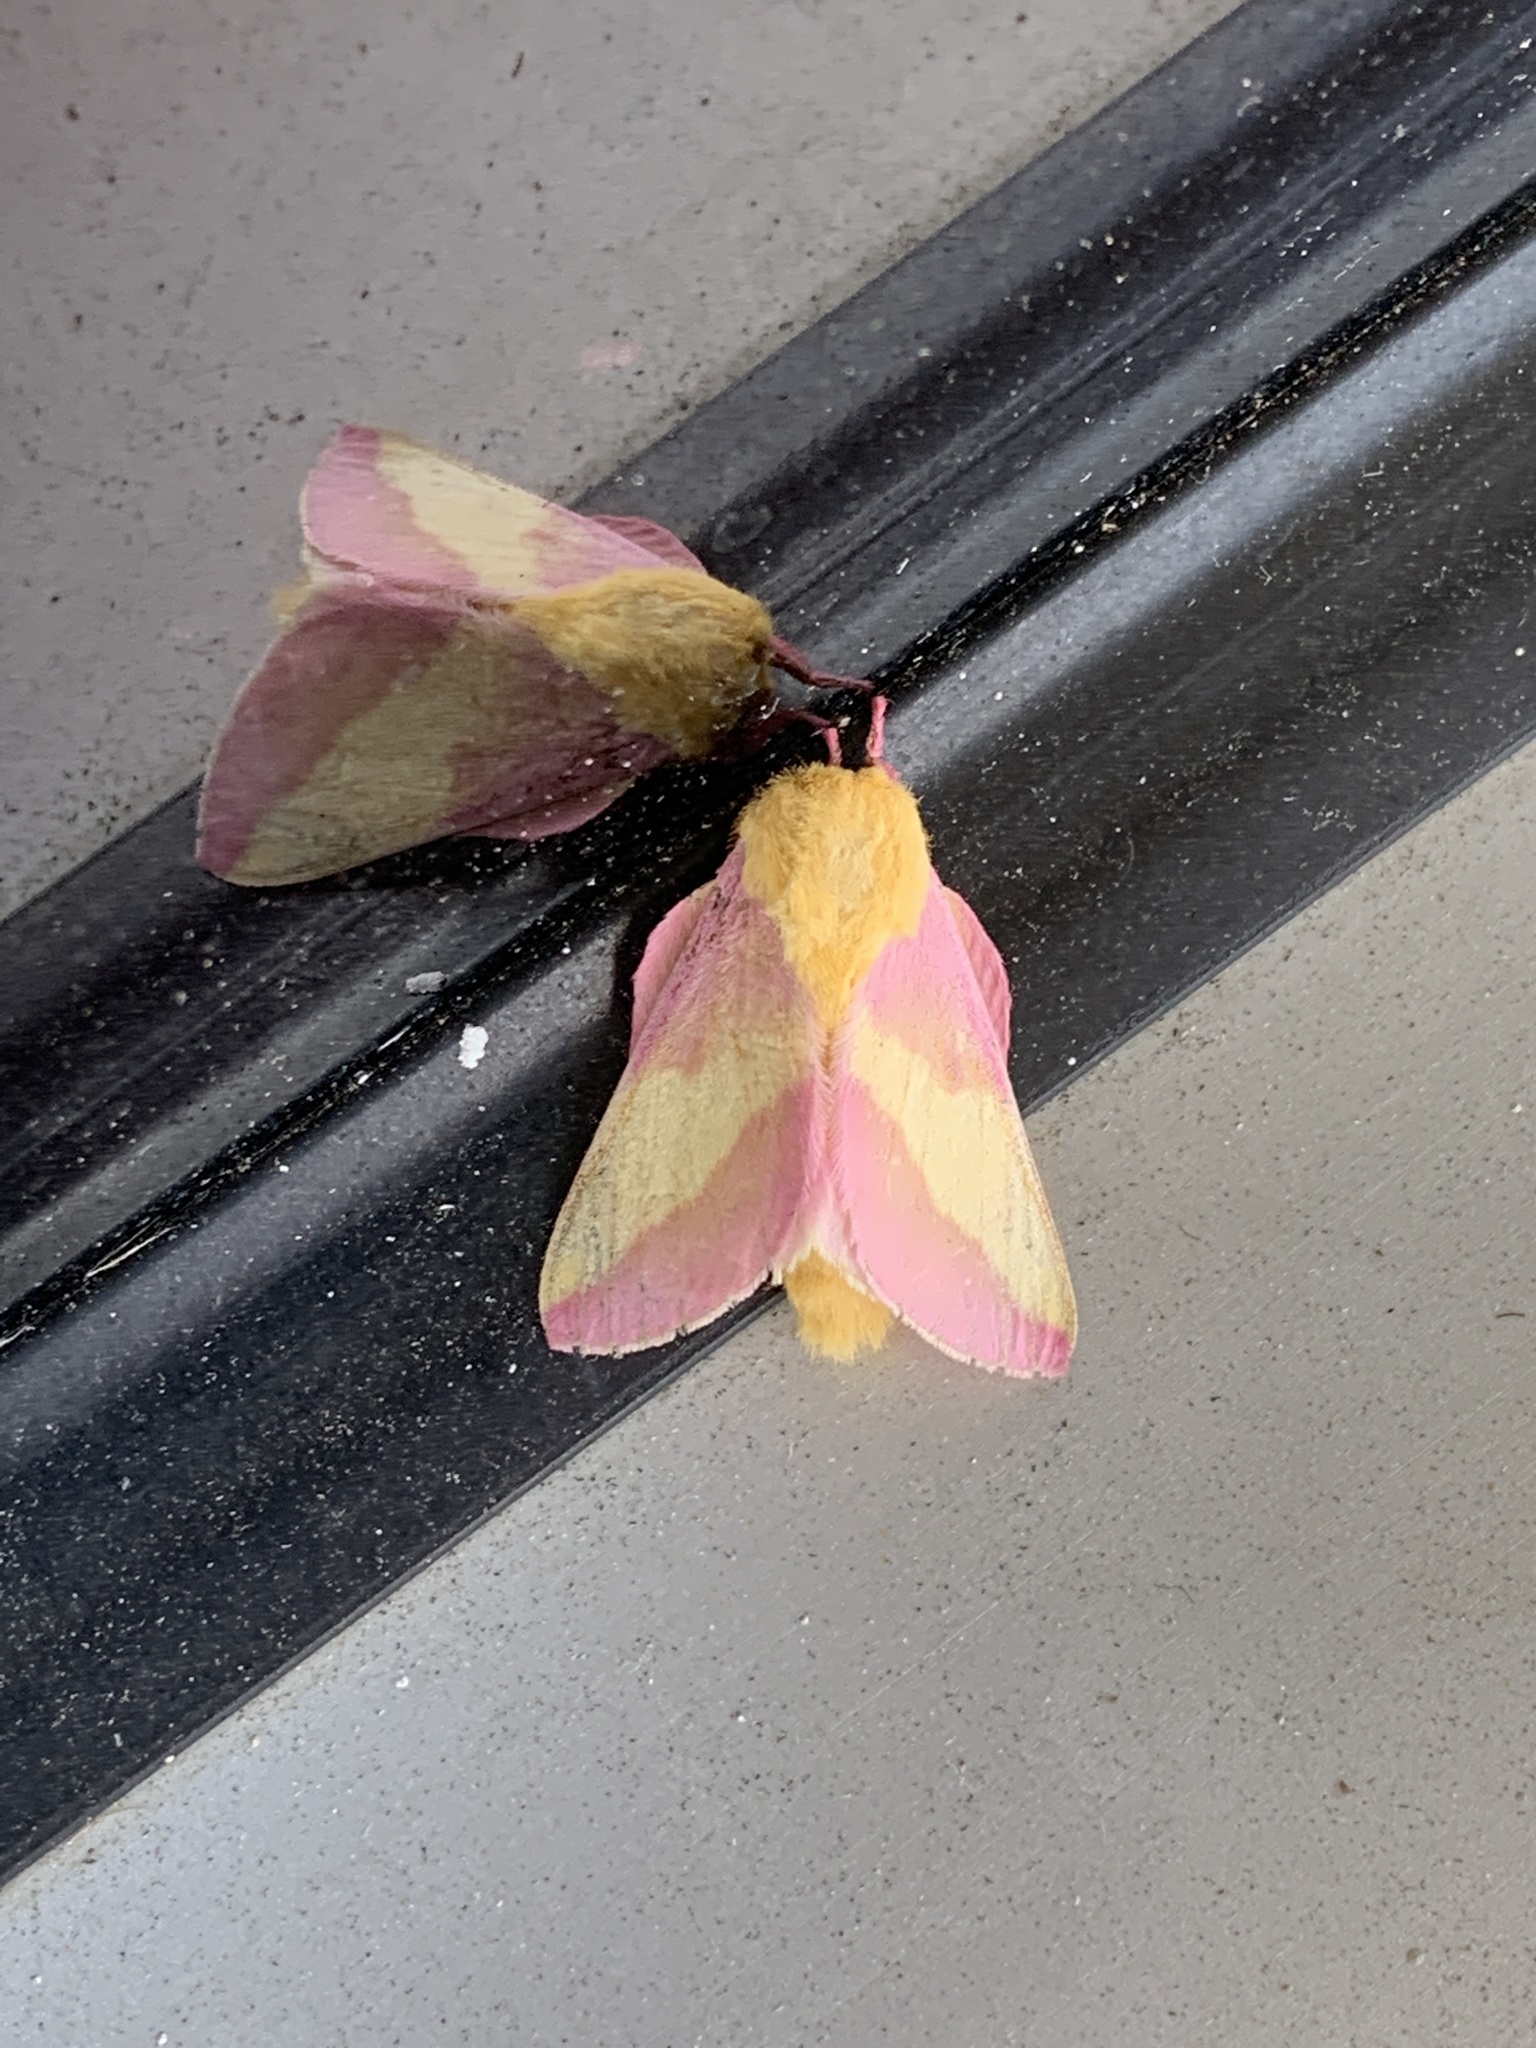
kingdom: Animalia
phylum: Arthropoda
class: Insecta
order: Lepidoptera
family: Saturniidae
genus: Dryocampa
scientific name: Dryocampa rubicunda
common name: Rosy maple moth
